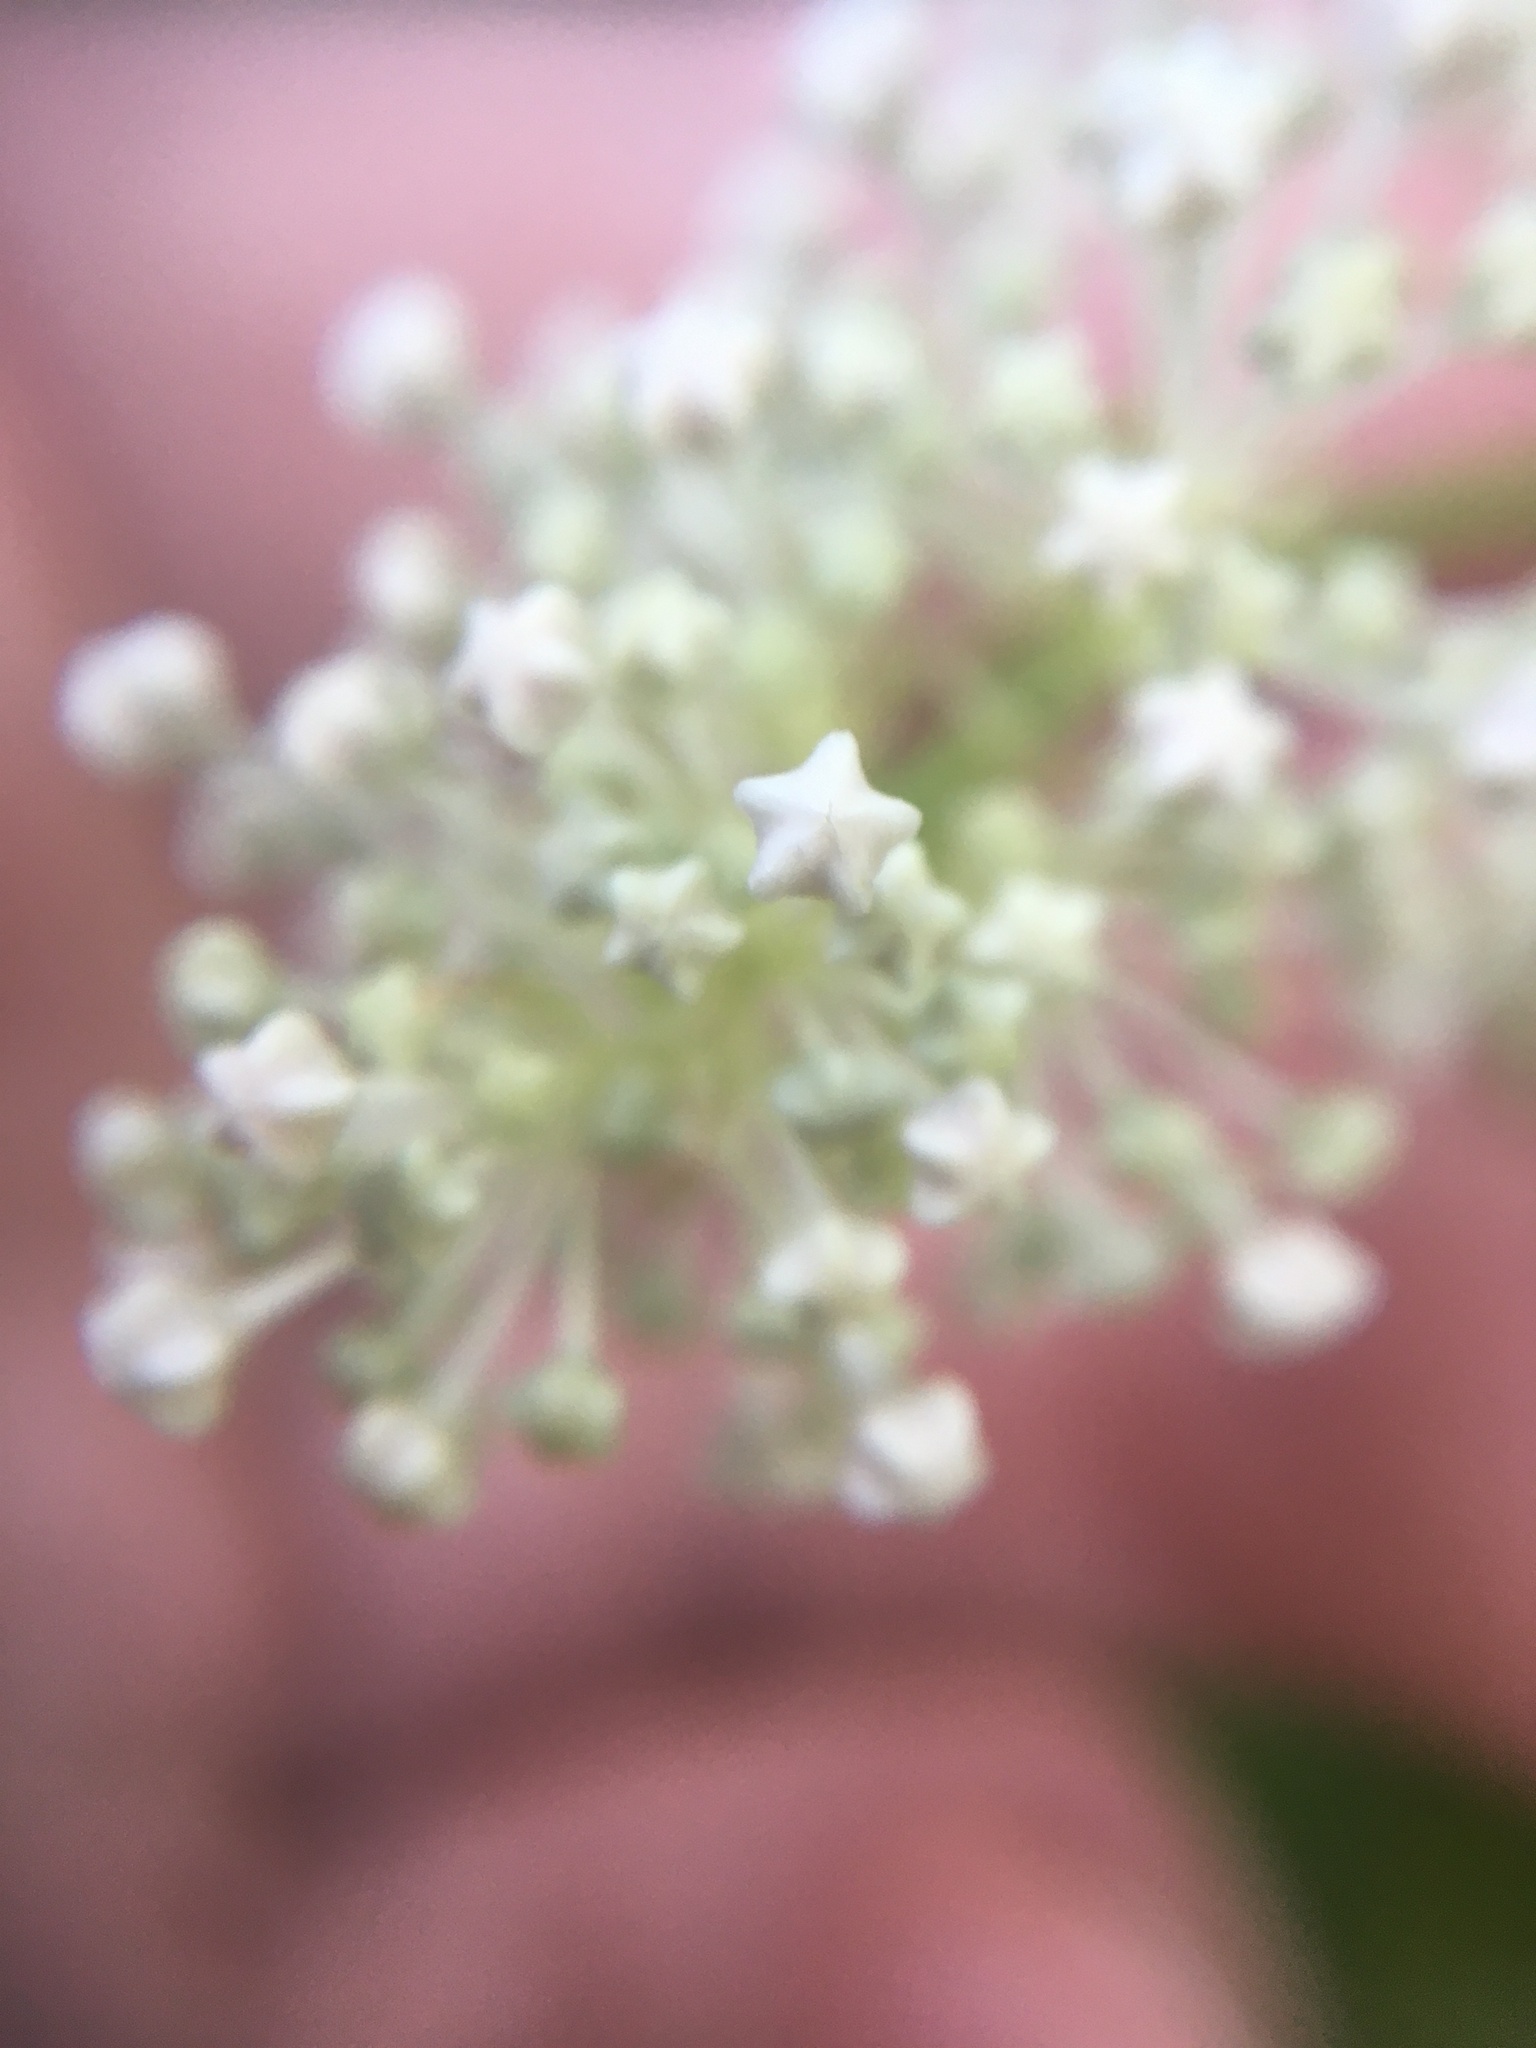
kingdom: Plantae
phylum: Tracheophyta
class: Magnoliopsida
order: Rosales
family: Rhamnaceae
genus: Ceanothus
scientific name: Ceanothus americanus
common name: Redroot
